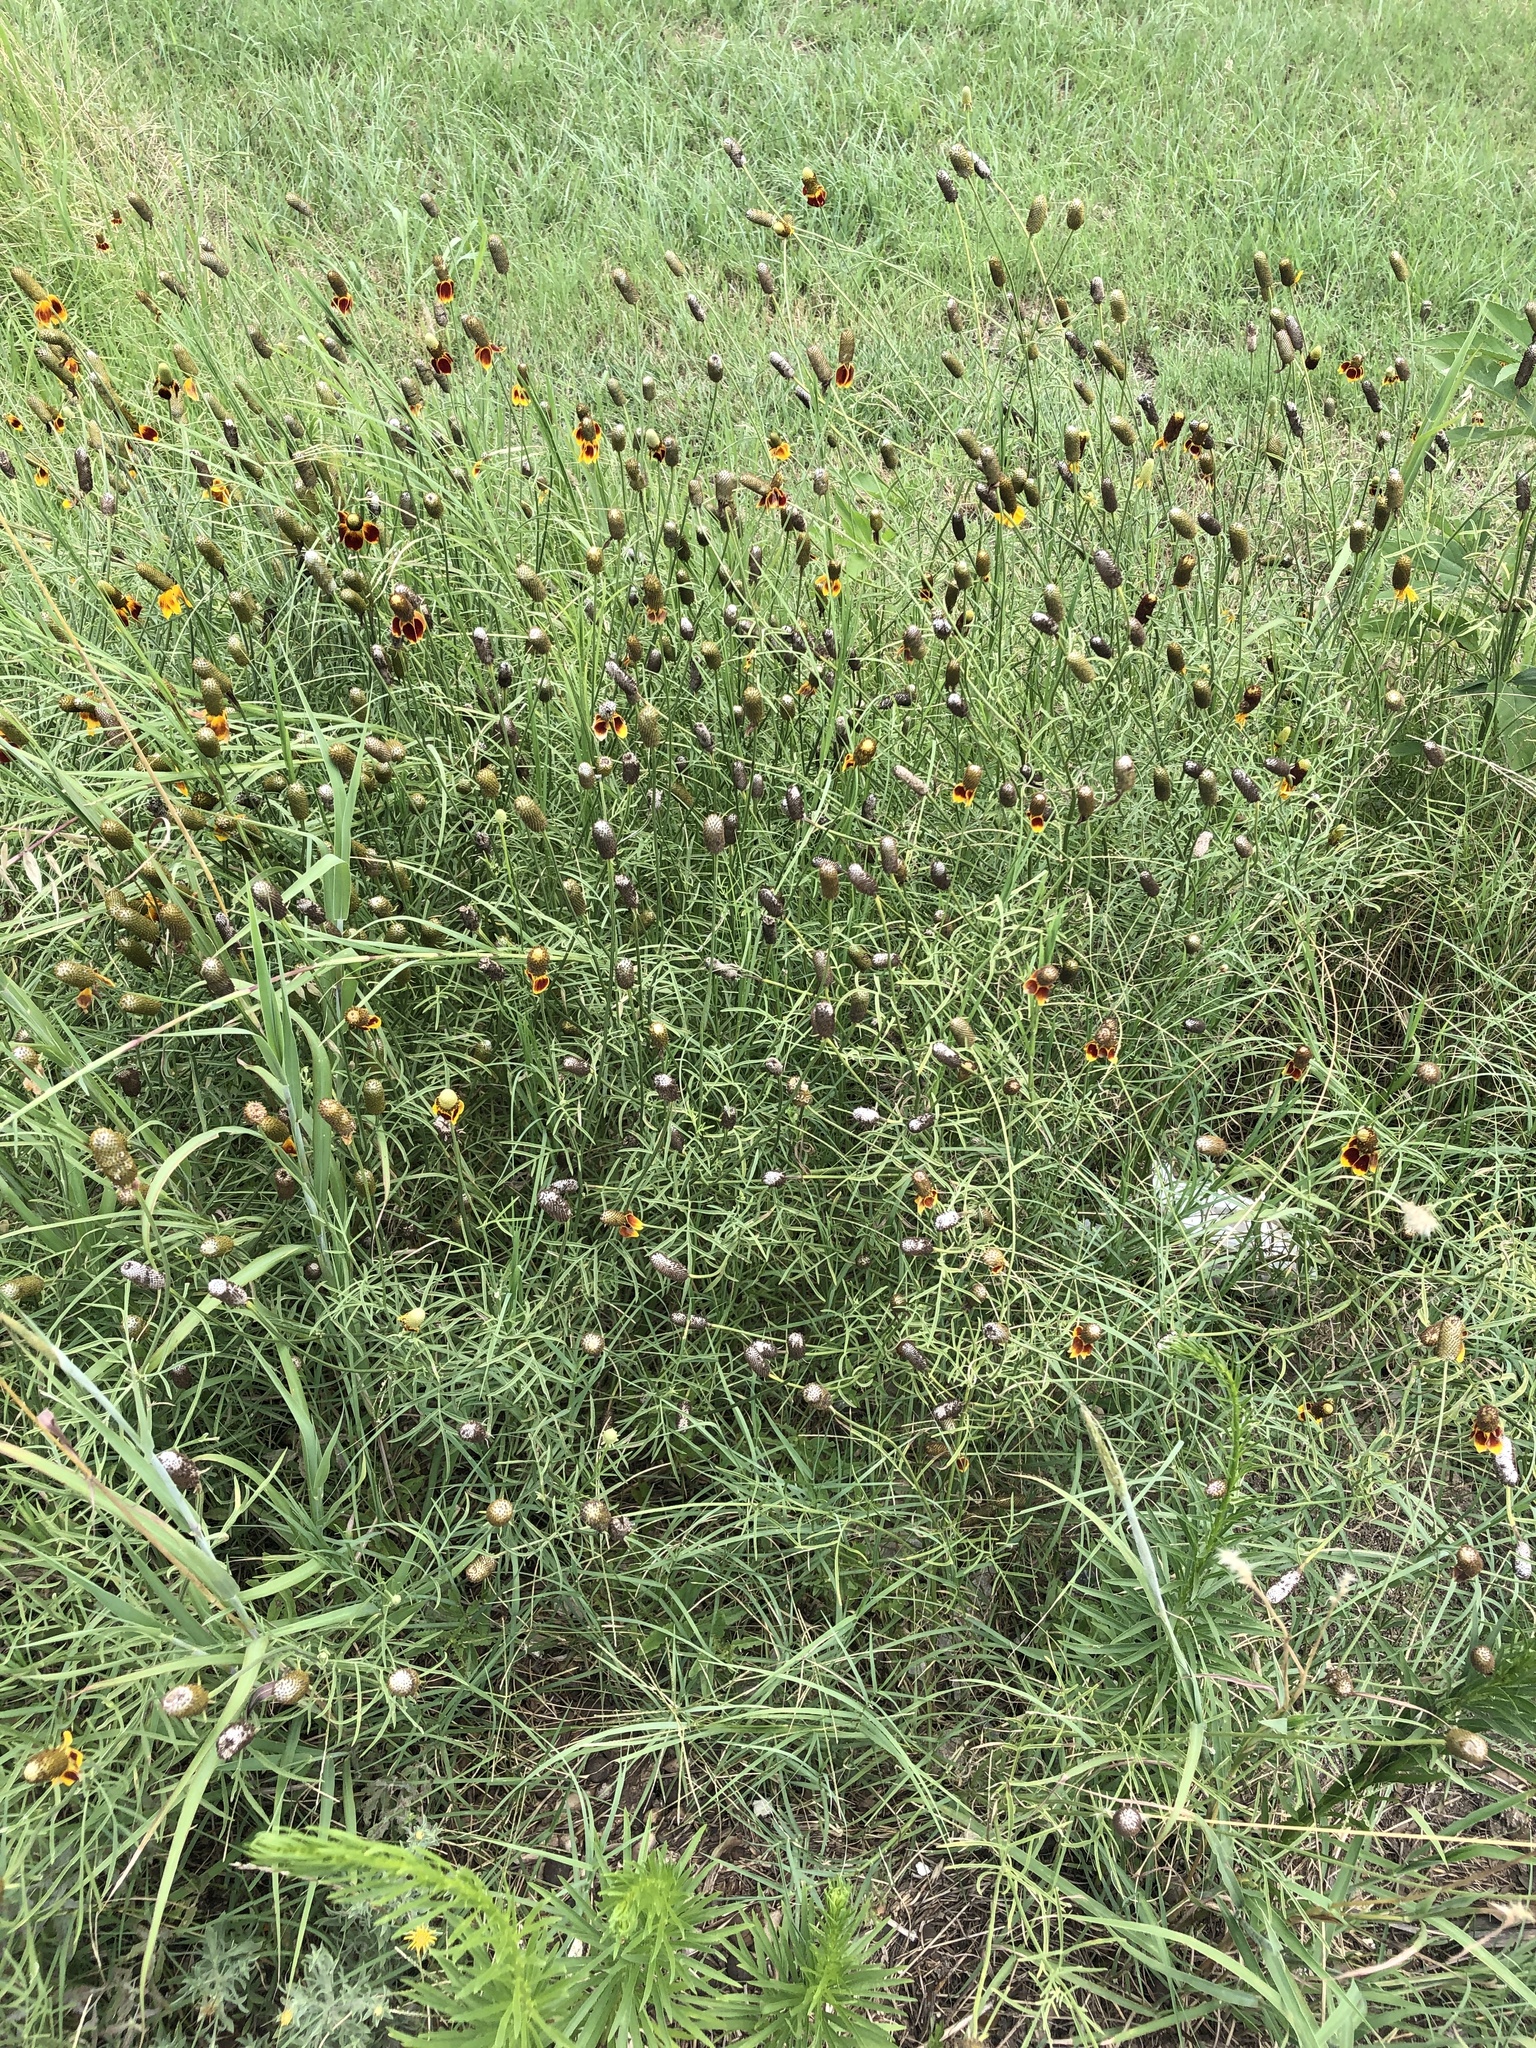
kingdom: Plantae
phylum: Tracheophyta
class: Magnoliopsida
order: Asterales
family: Asteraceae
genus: Ratibida
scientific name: Ratibida columnifera
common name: Prairie coneflower
